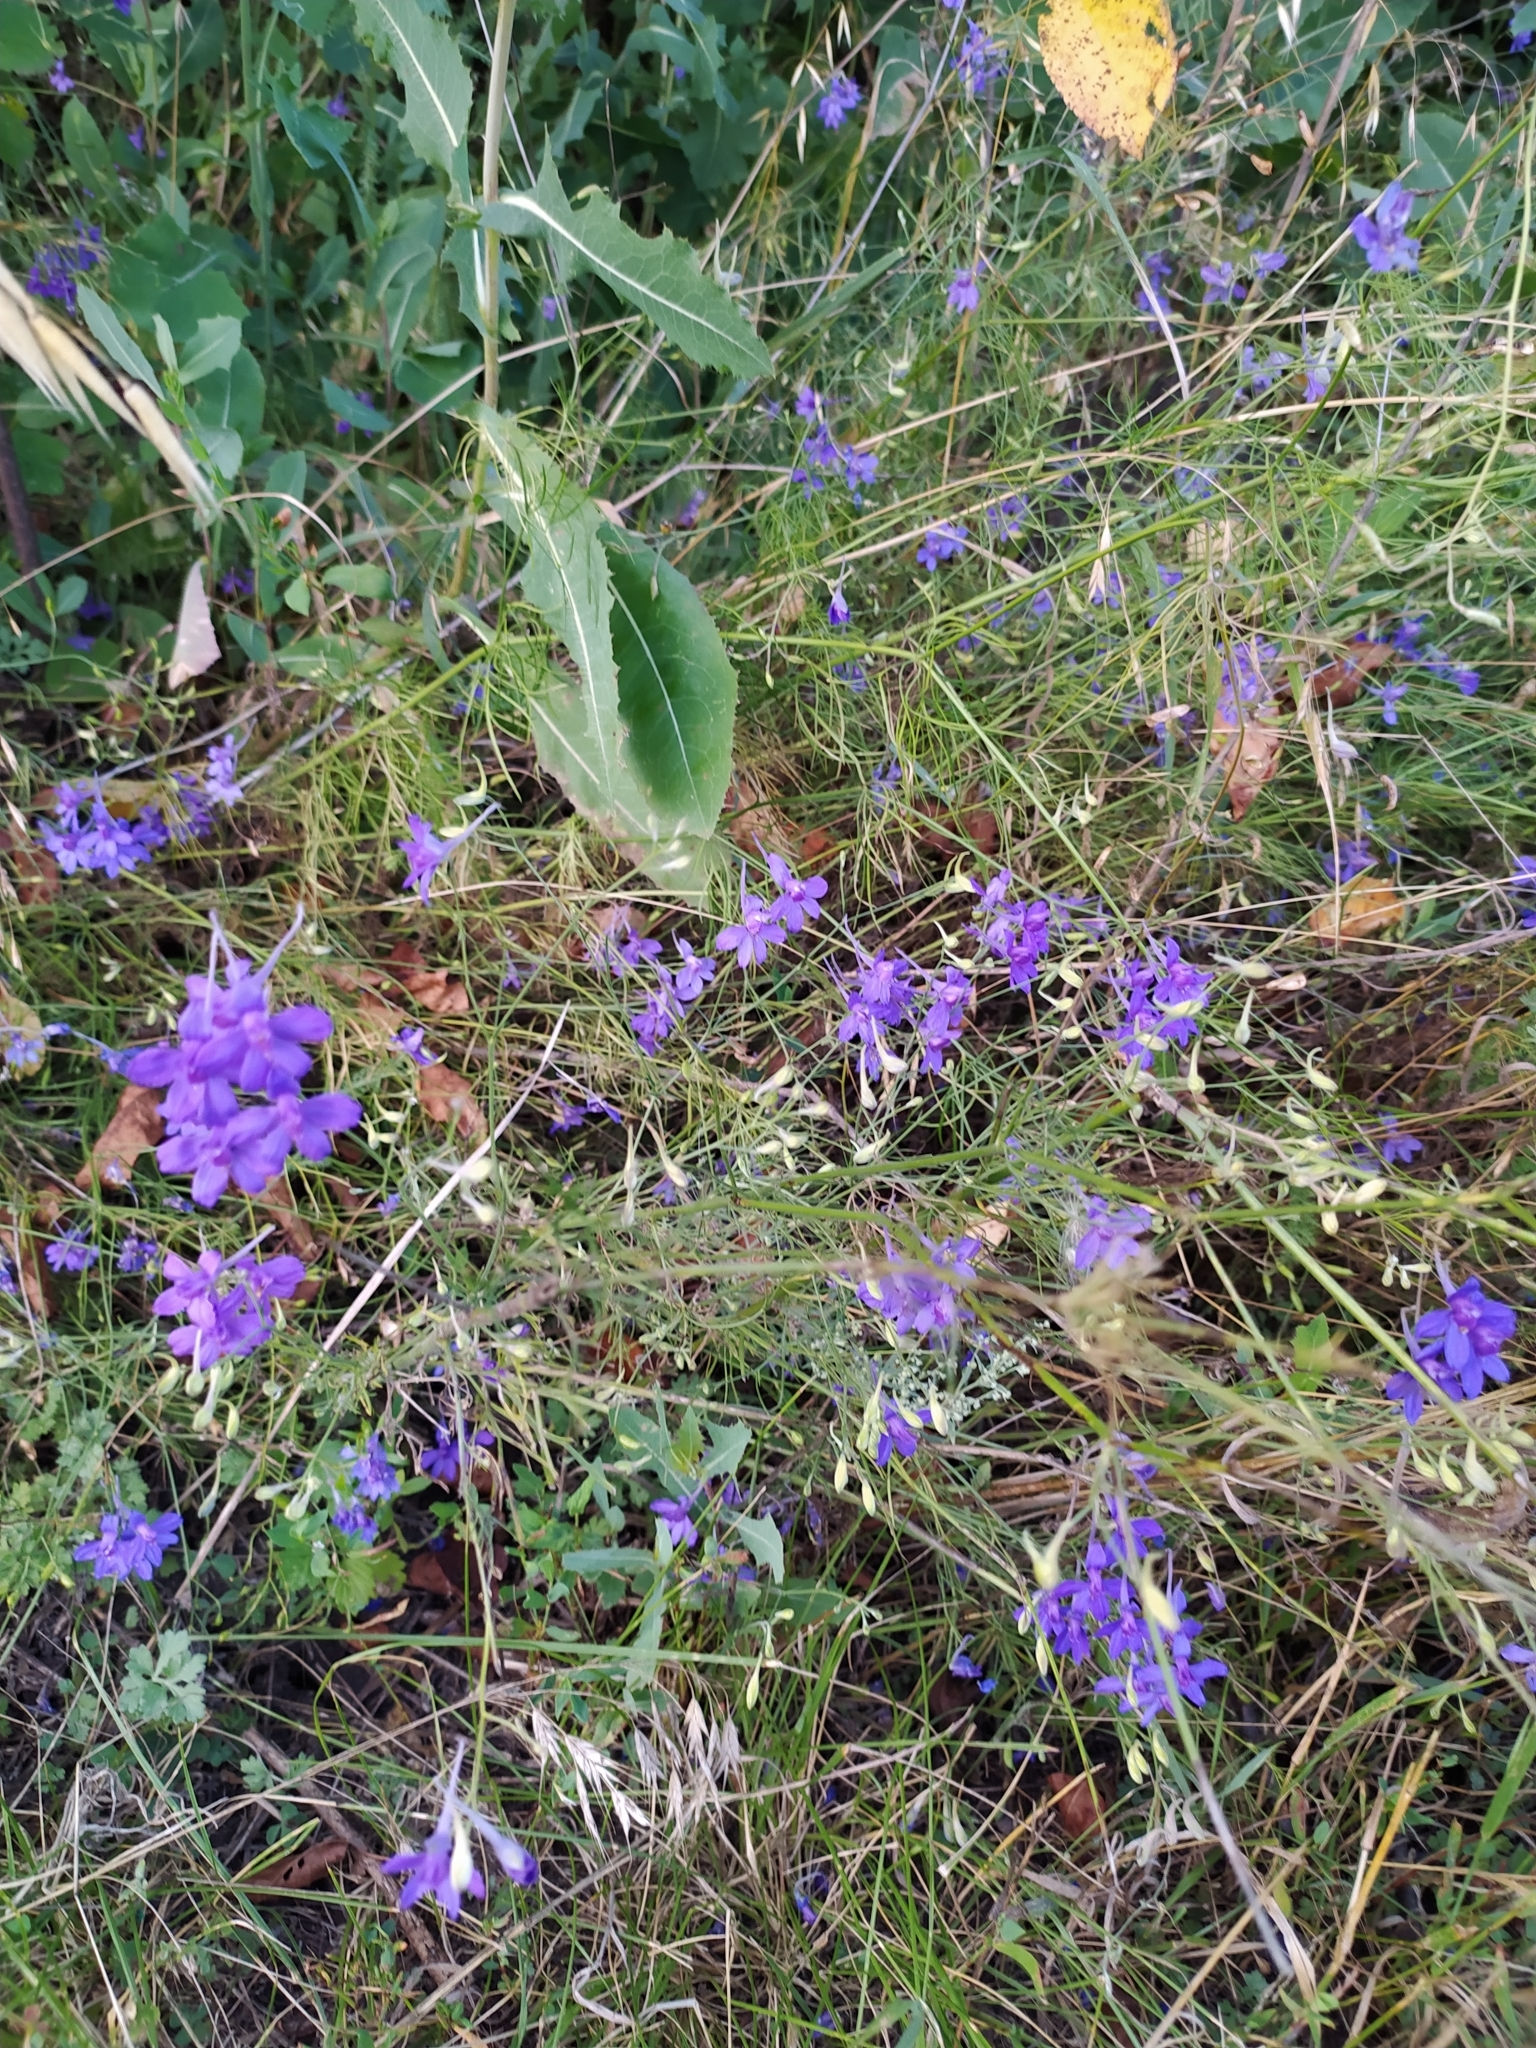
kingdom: Plantae
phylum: Tracheophyta
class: Magnoliopsida
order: Ranunculales
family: Ranunculaceae
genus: Delphinium
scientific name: Delphinium consolida
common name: Branching larkspur
